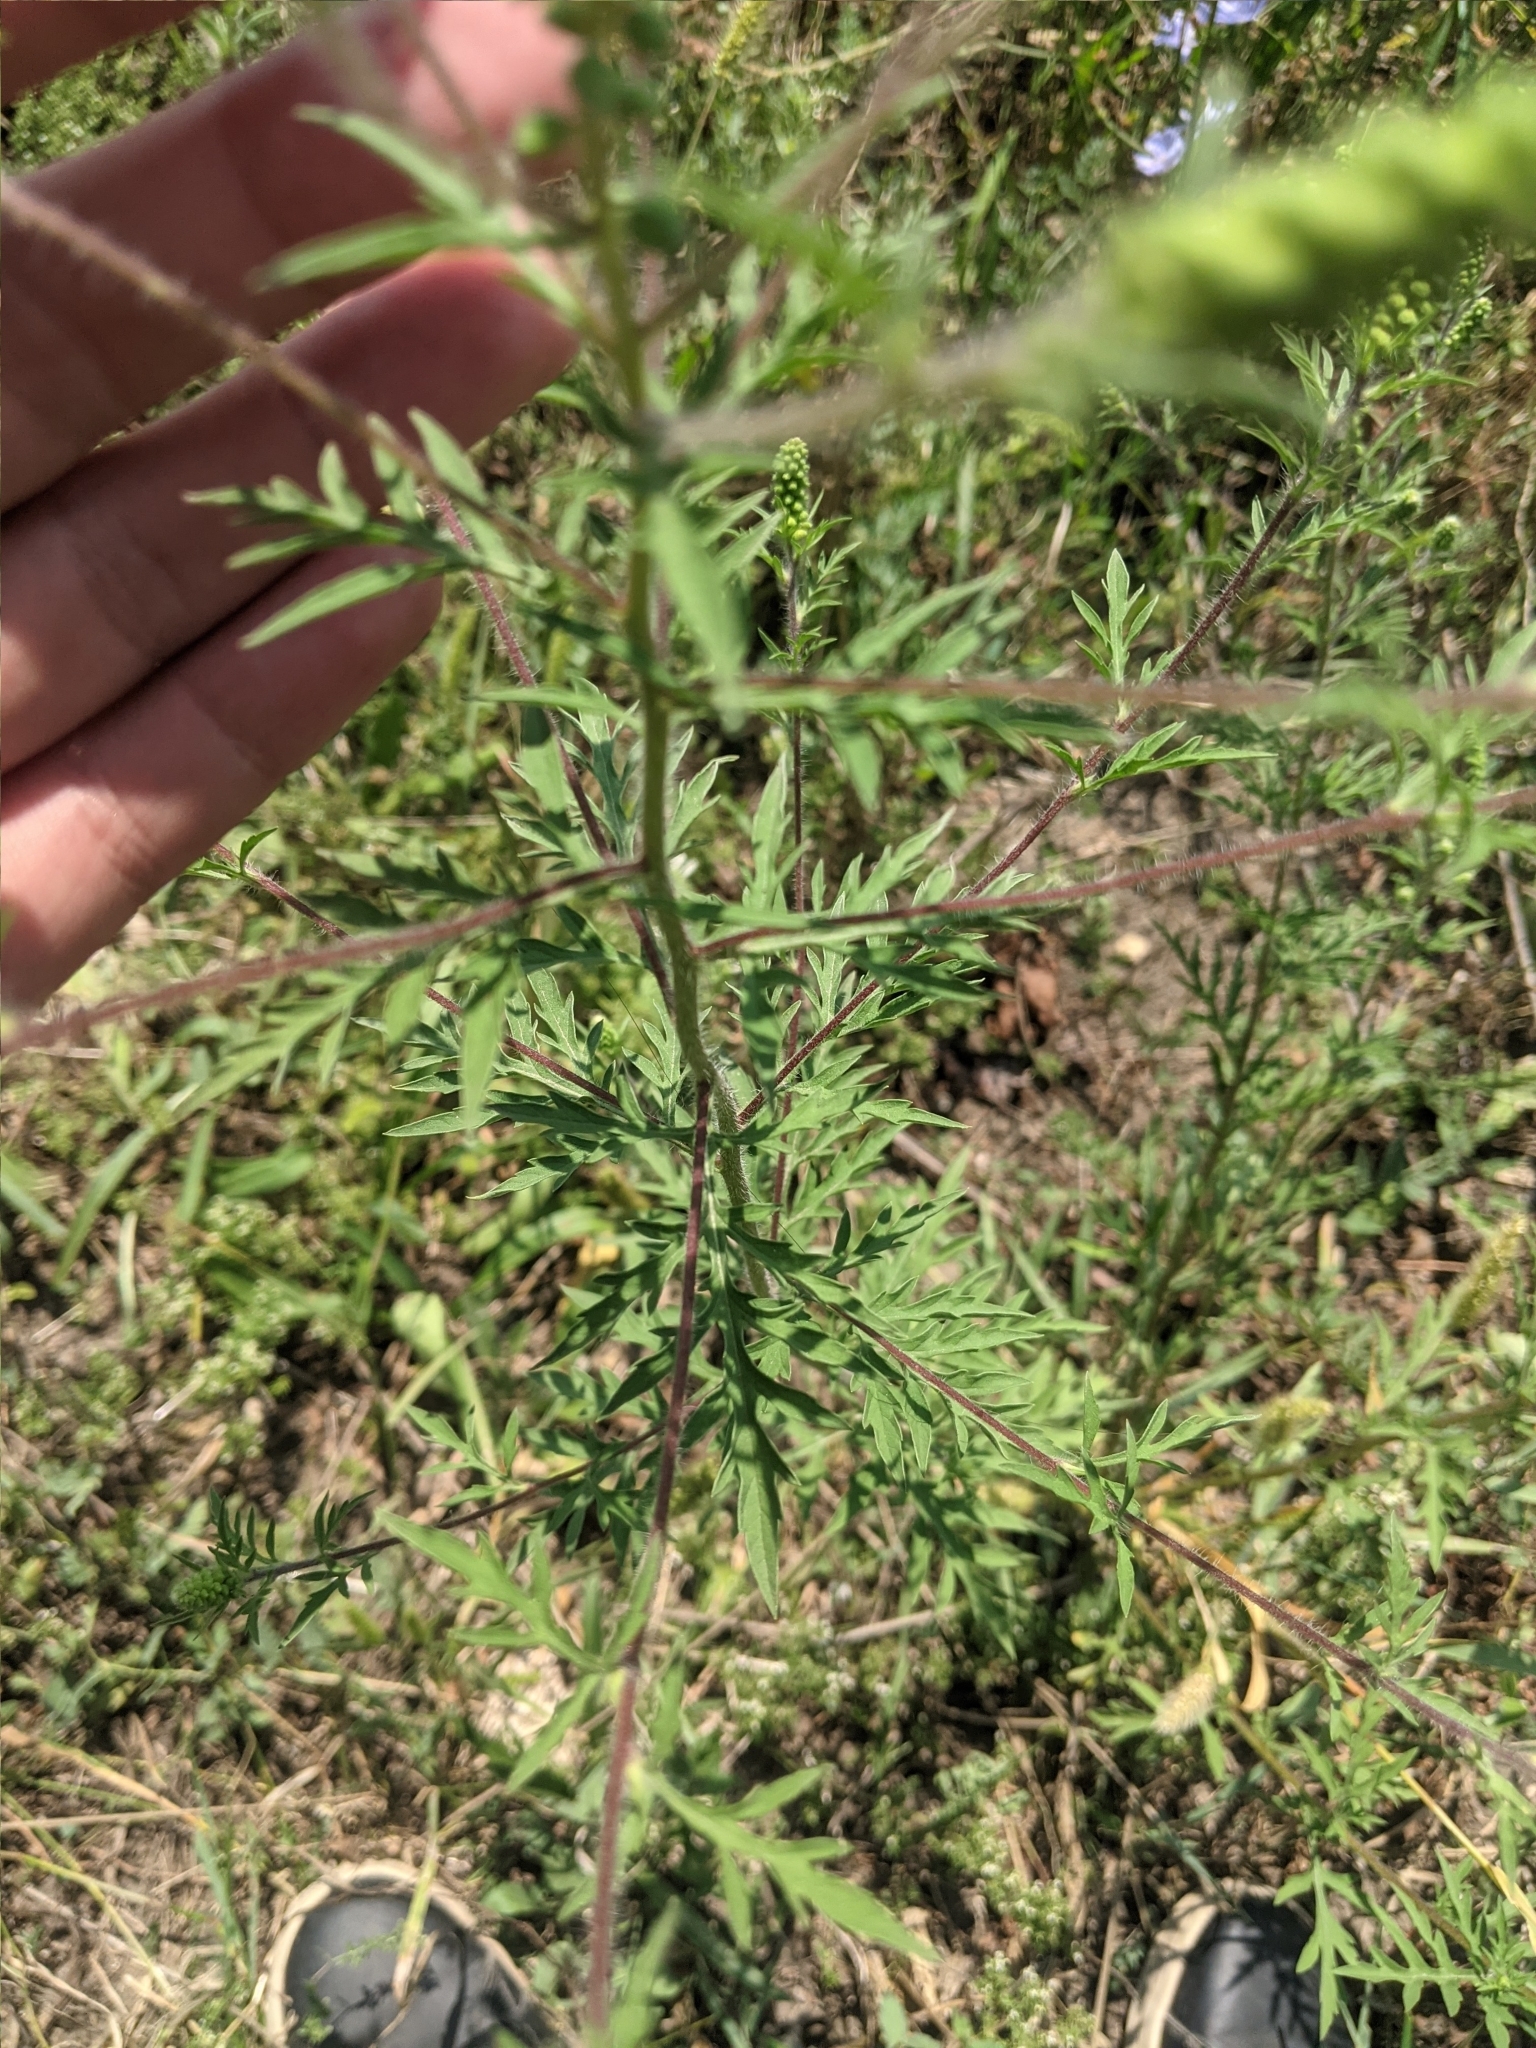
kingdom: Plantae
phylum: Tracheophyta
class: Magnoliopsida
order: Asterales
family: Asteraceae
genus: Ambrosia
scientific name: Ambrosia artemisiifolia
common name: Annual ragweed
